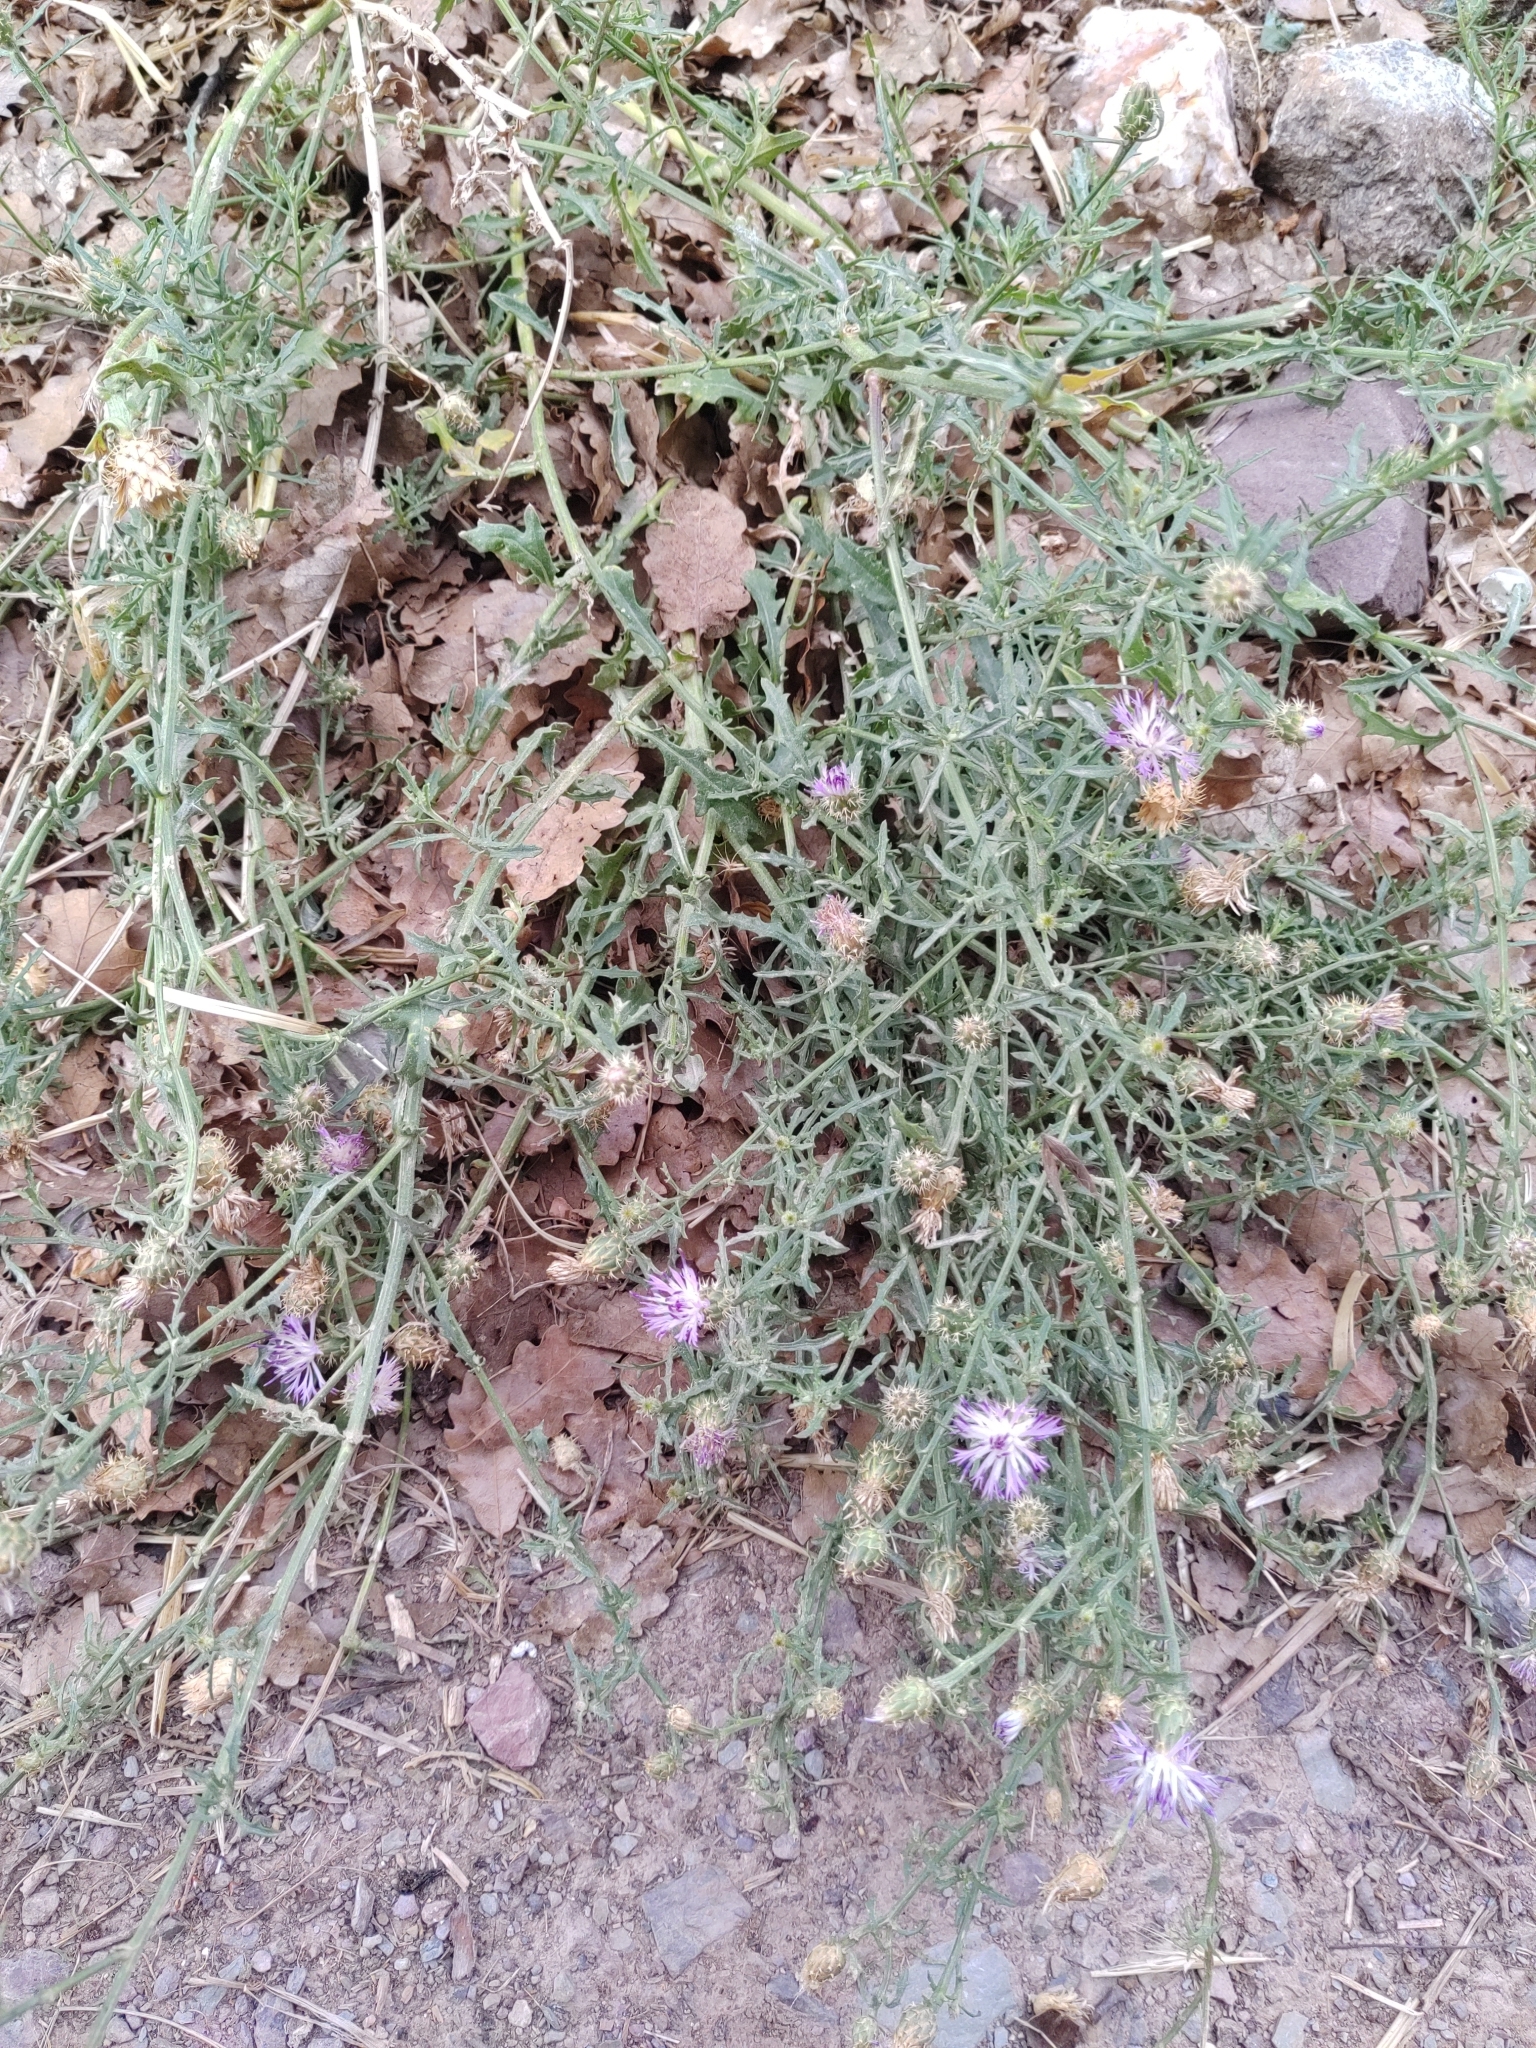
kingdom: Plantae
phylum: Tracheophyta
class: Magnoliopsida
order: Asterales
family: Asteraceae
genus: Centaurea
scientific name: Centaurea aspera
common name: Rough star-thistle
